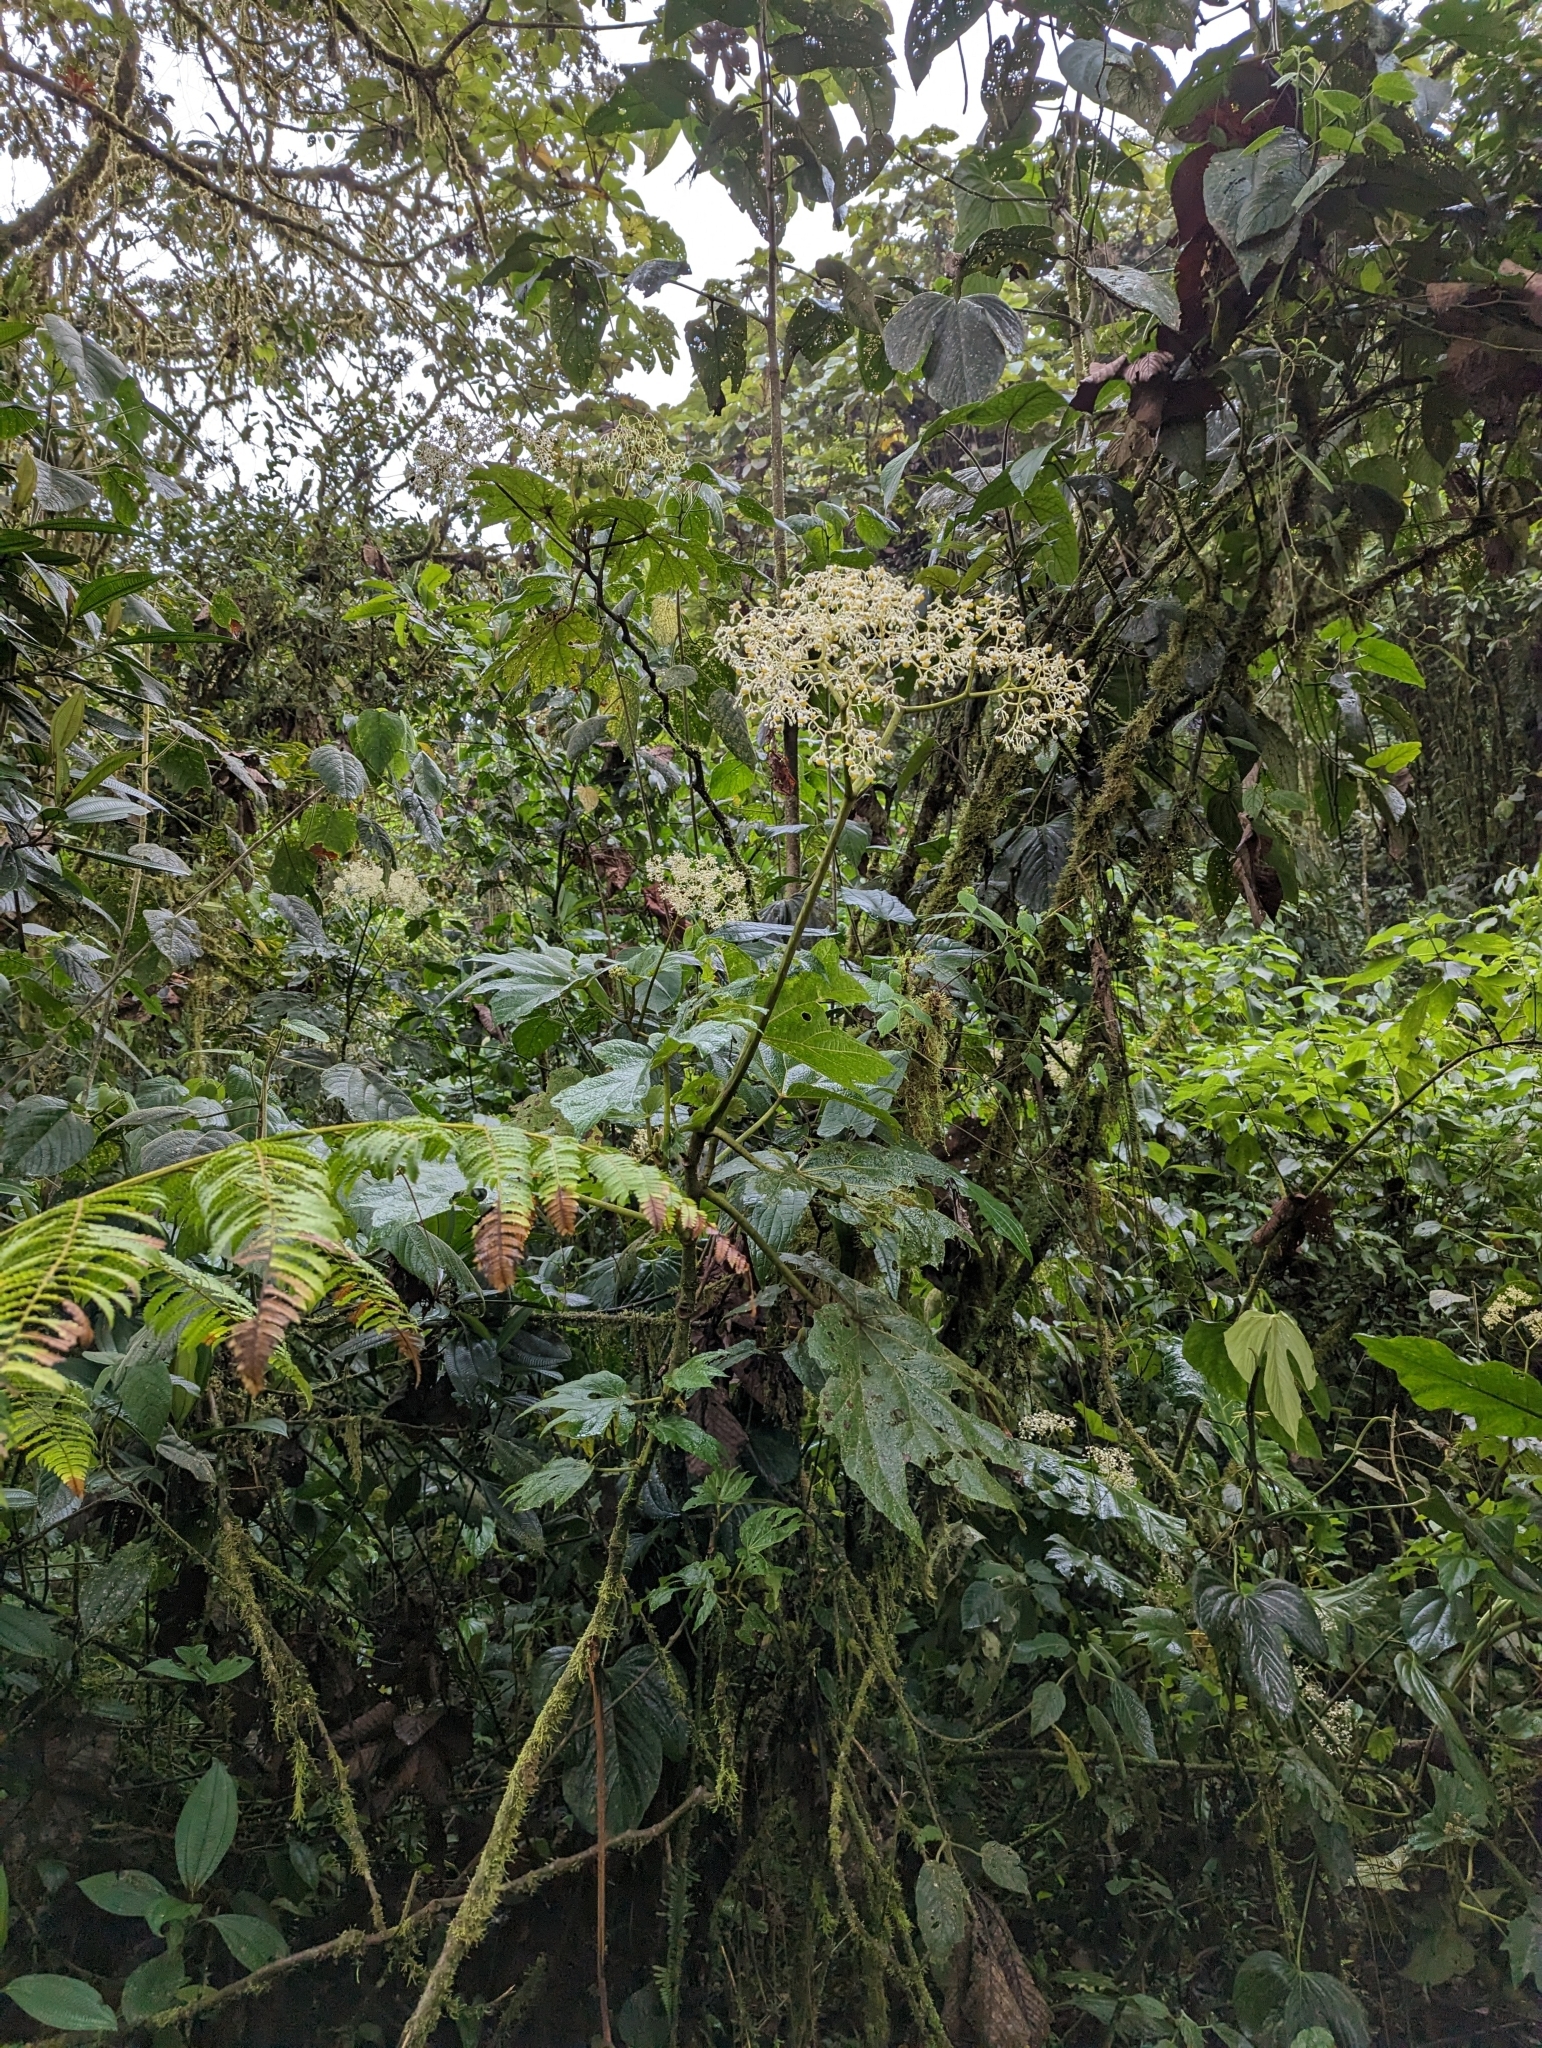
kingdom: Plantae
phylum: Tracheophyta
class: Magnoliopsida
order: Cucurbitales
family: Begoniaceae
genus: Begonia
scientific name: Begonia parviflora
